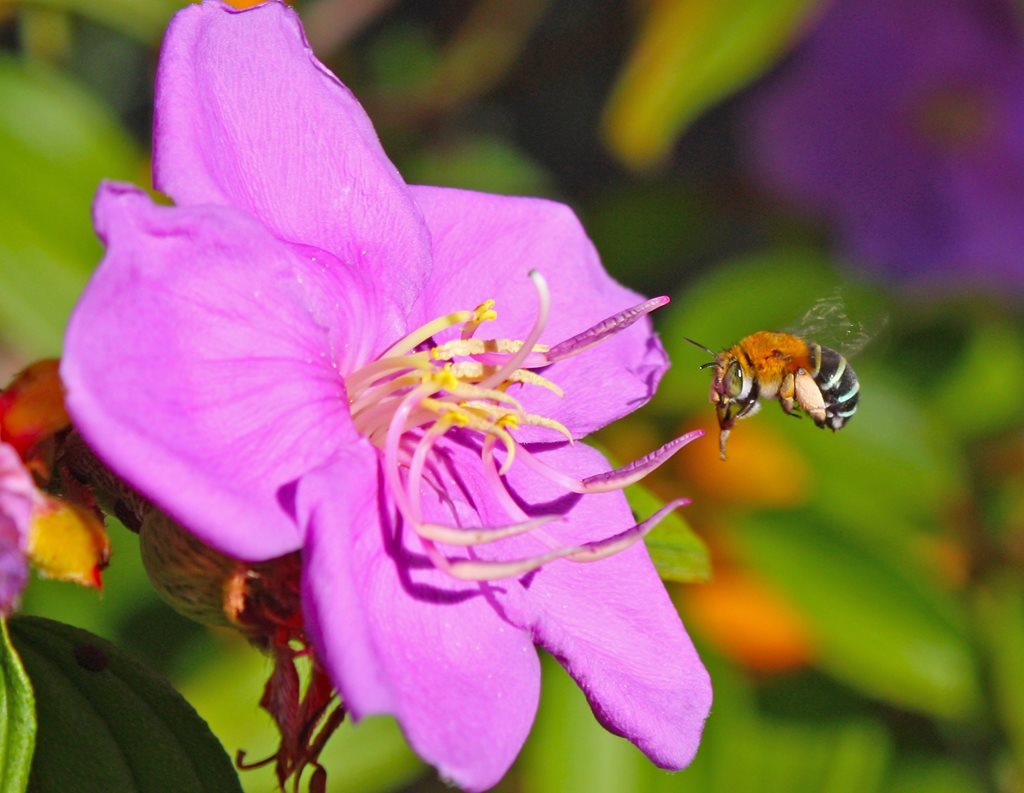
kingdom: Animalia
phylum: Arthropoda
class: Insecta
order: Hymenoptera
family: Apidae
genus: Amegilla
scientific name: Amegilla cingulata
